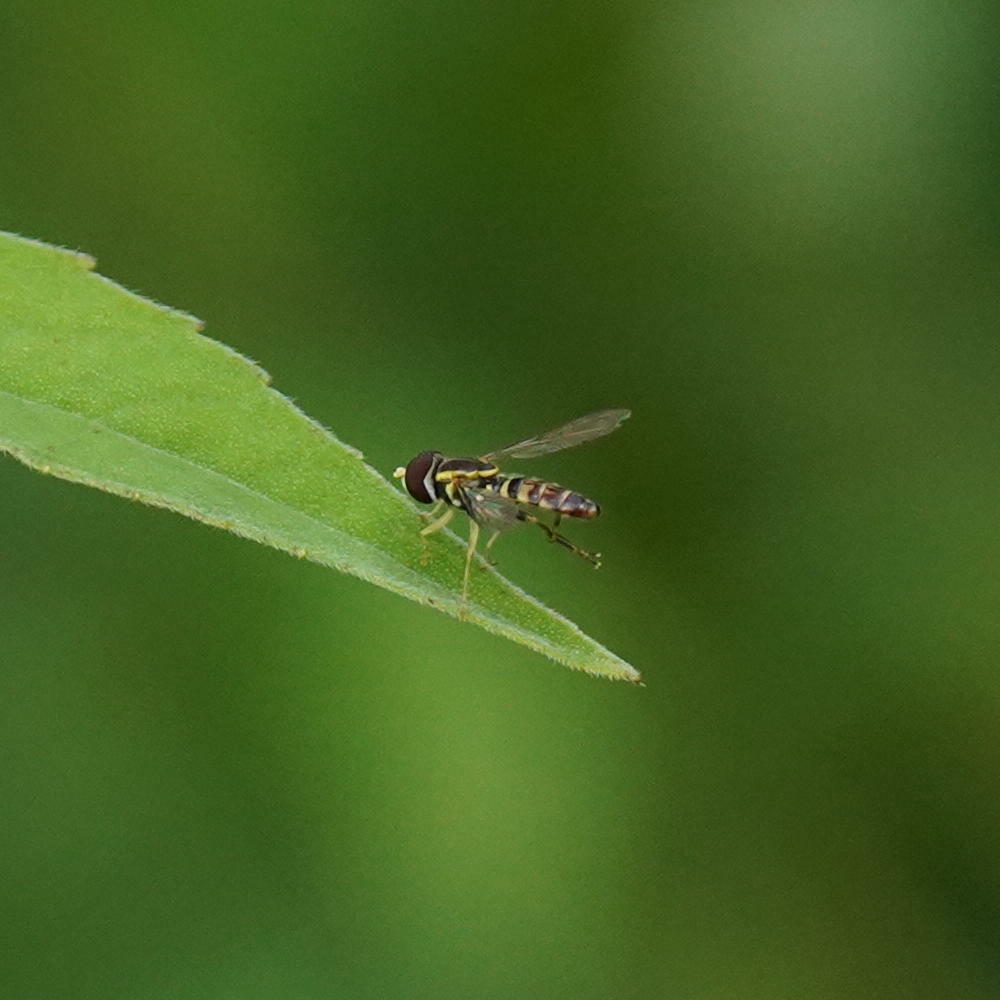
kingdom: Animalia
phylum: Arthropoda
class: Insecta
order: Diptera
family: Syrphidae
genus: Toxomerus
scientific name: Toxomerus geminatus
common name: Eastern calligrapher
